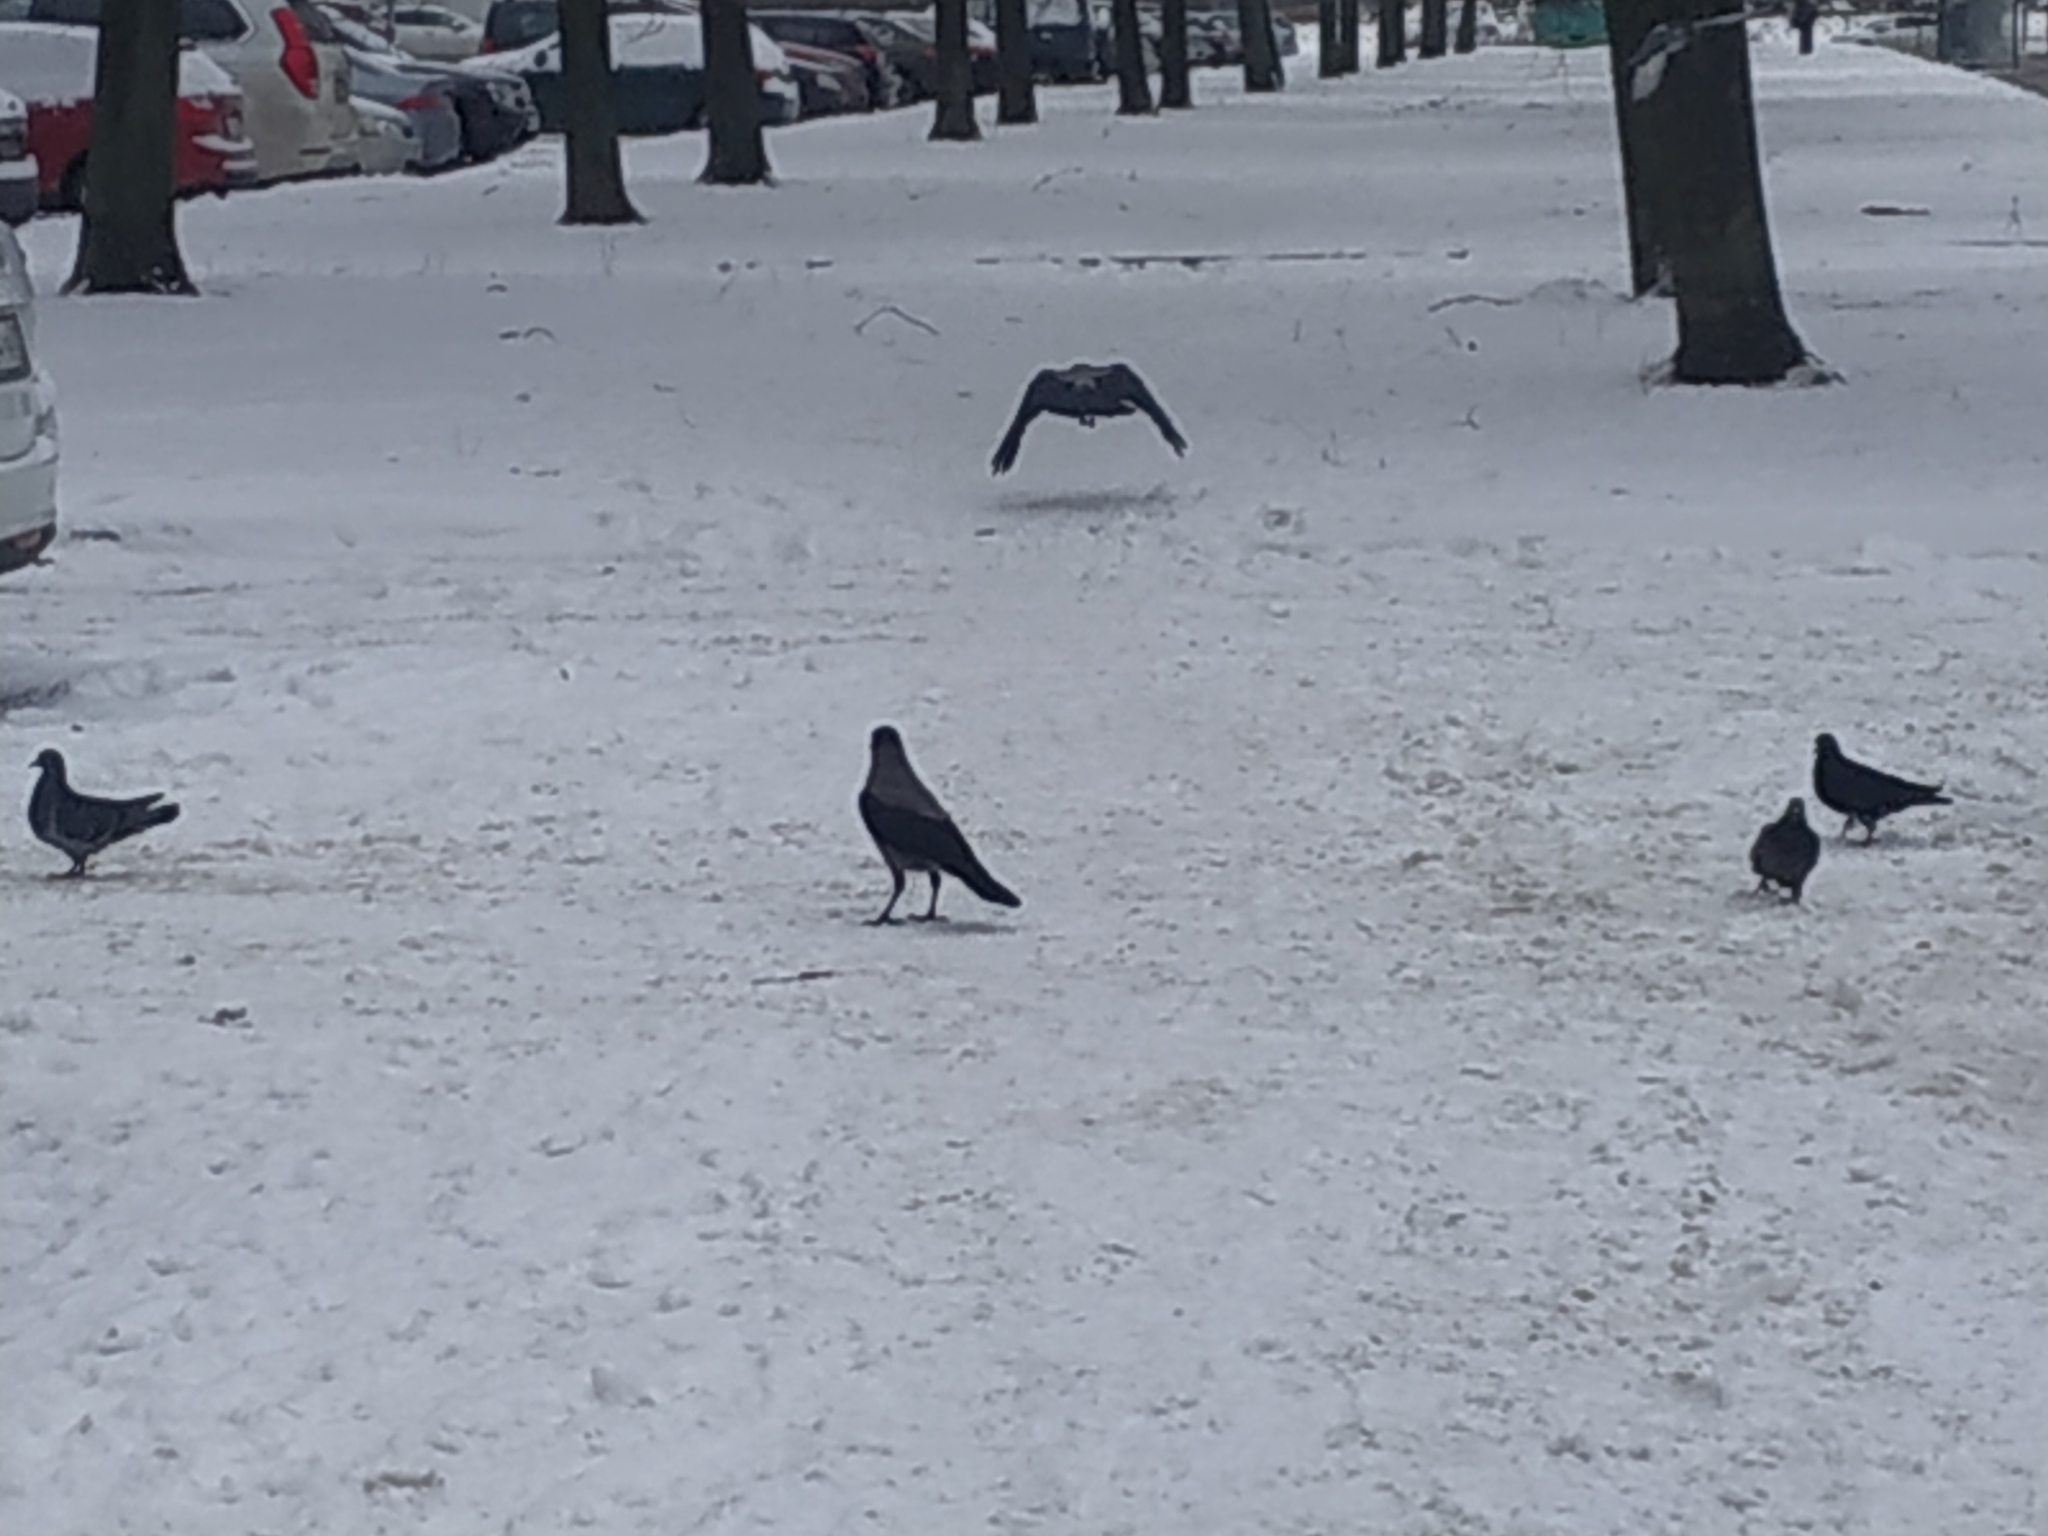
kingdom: Animalia
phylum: Chordata
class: Aves
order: Columbiformes
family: Columbidae
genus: Columba
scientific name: Columba livia
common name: Rock pigeon
